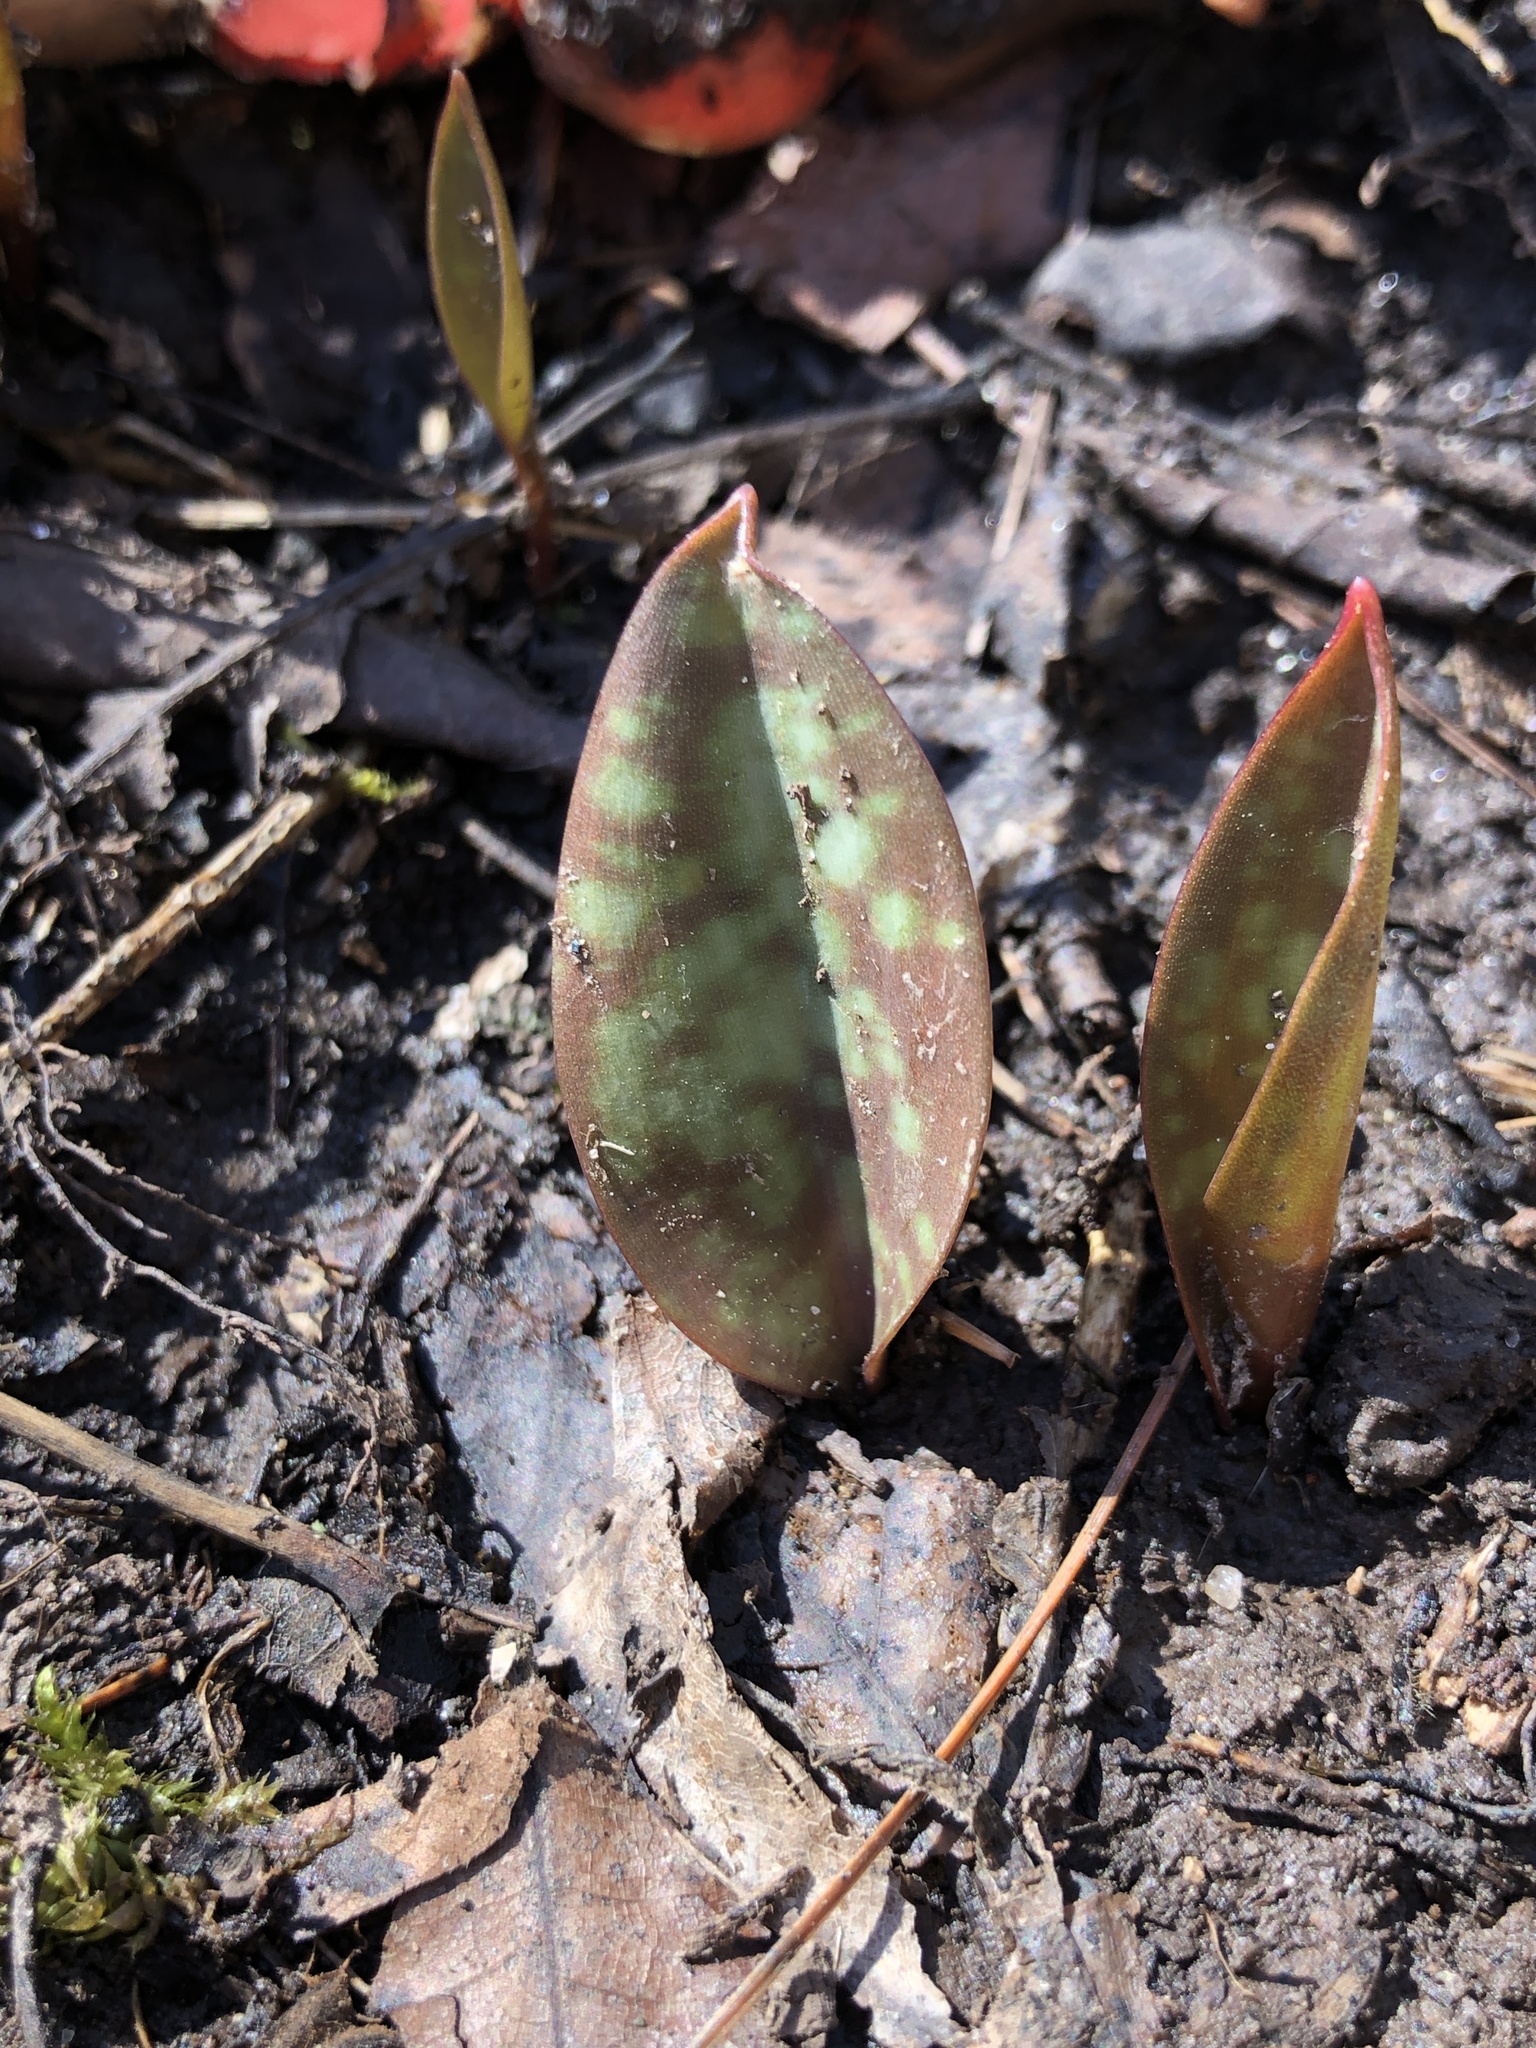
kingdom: Plantae
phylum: Tracheophyta
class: Liliopsida
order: Liliales
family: Liliaceae
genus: Erythronium
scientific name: Erythronium americanum
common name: Yellow adder's-tongue
